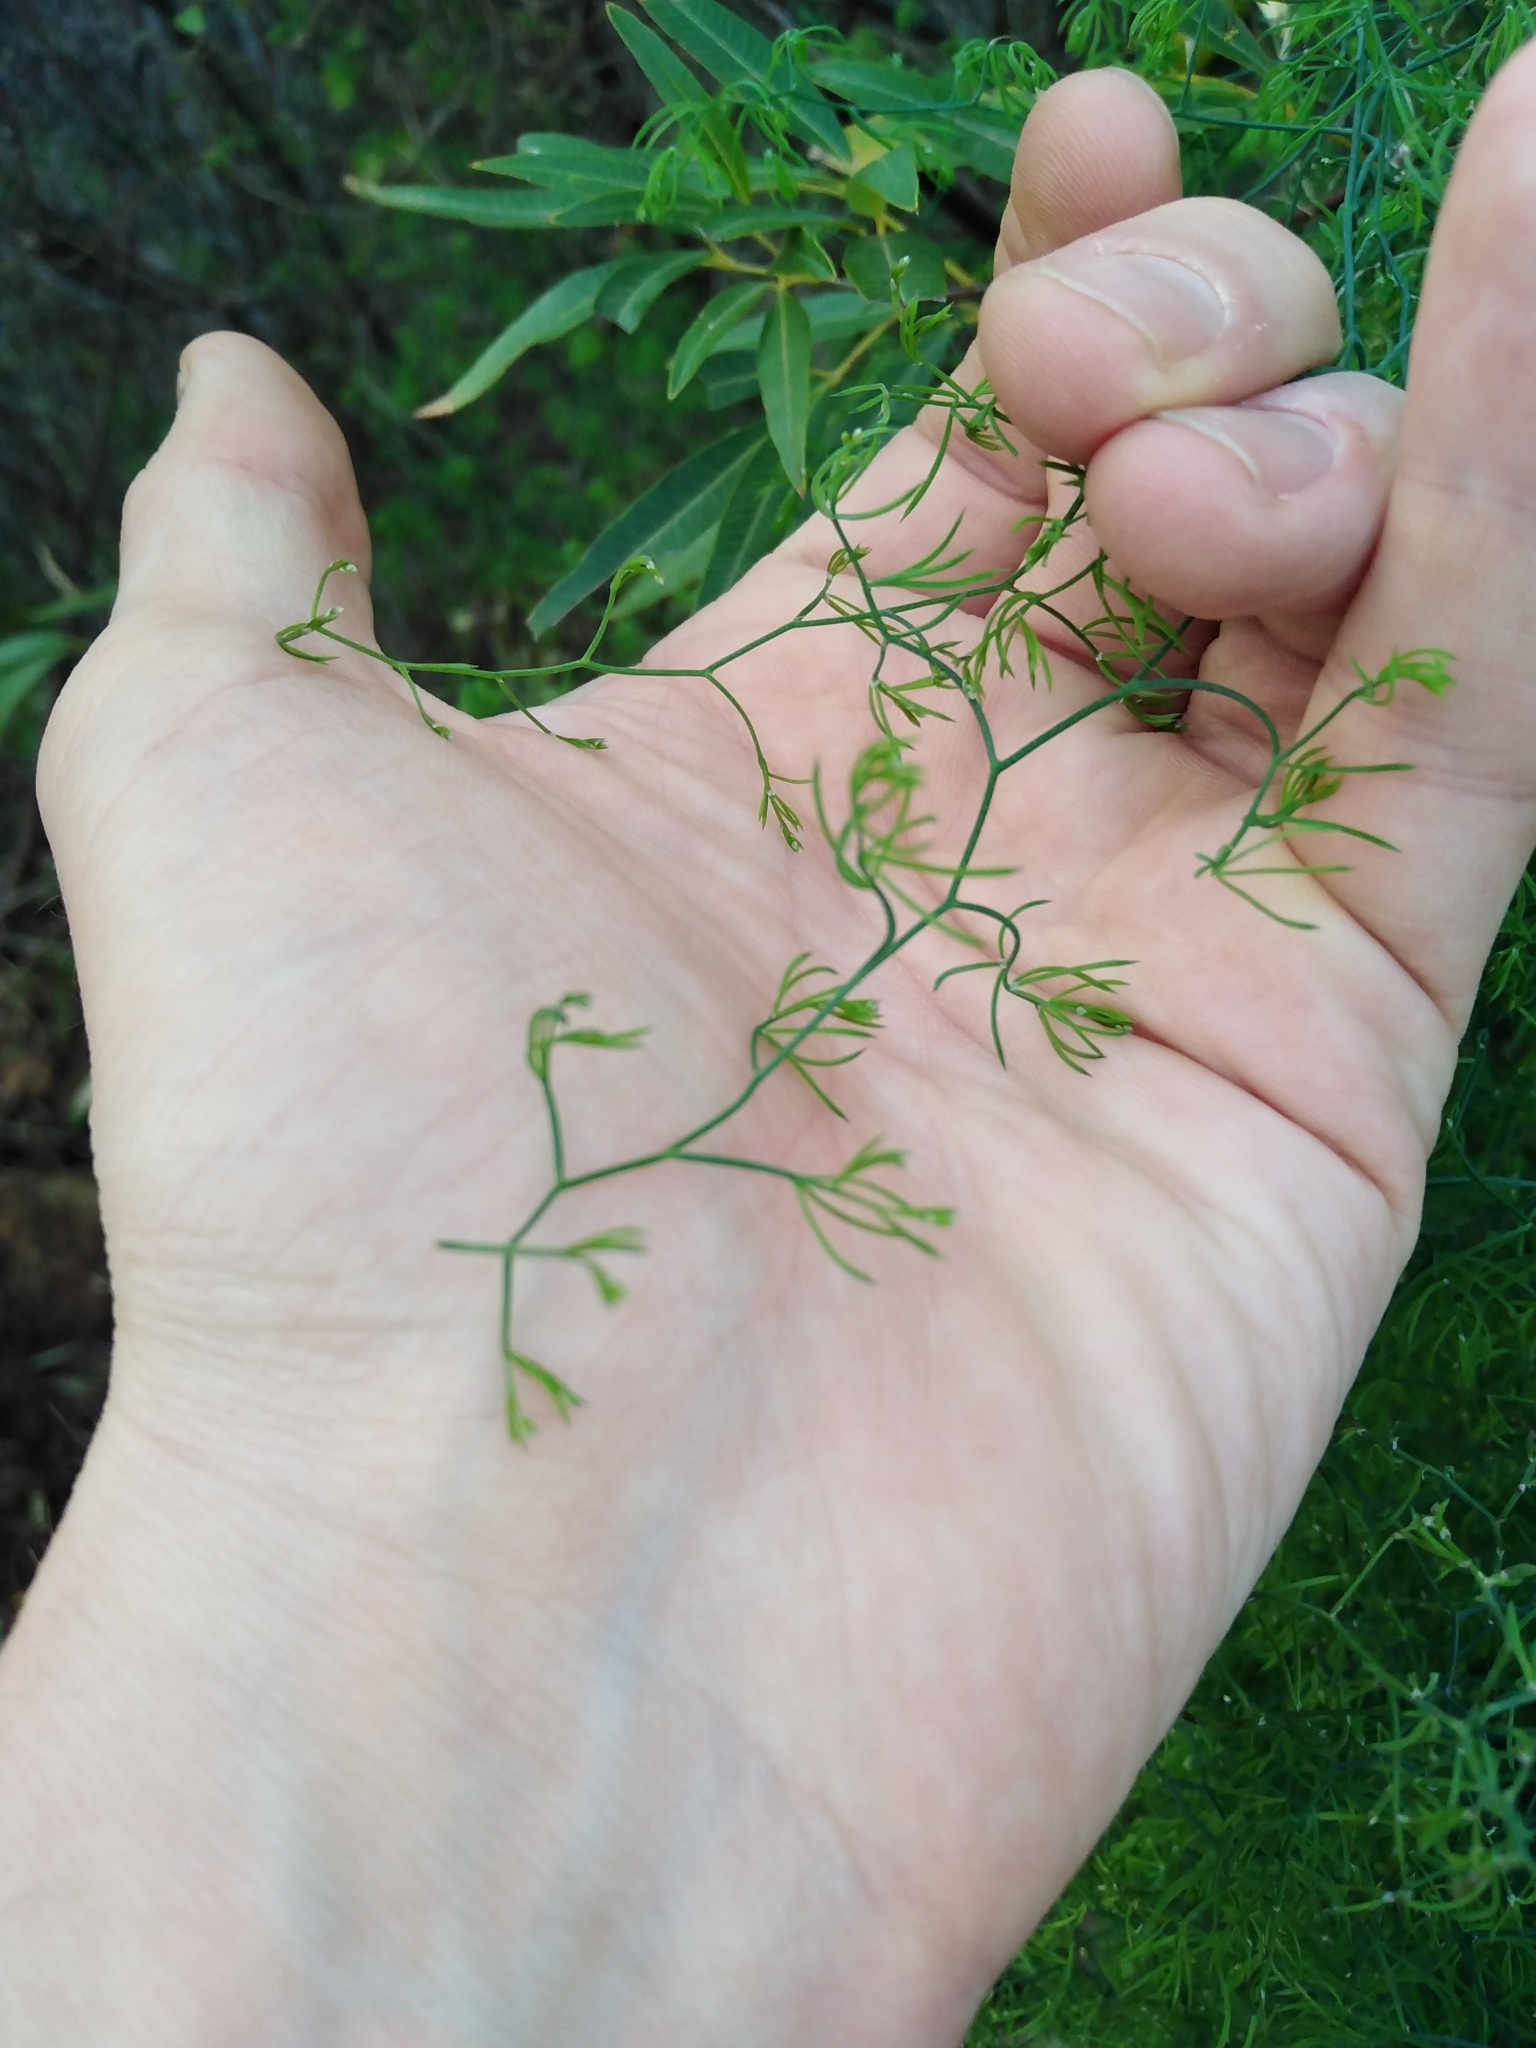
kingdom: Plantae
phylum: Tracheophyta
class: Liliopsida
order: Asparagales
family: Asparagaceae
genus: Asparagus
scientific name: Asparagus declinatus
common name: Bridal-creeper
